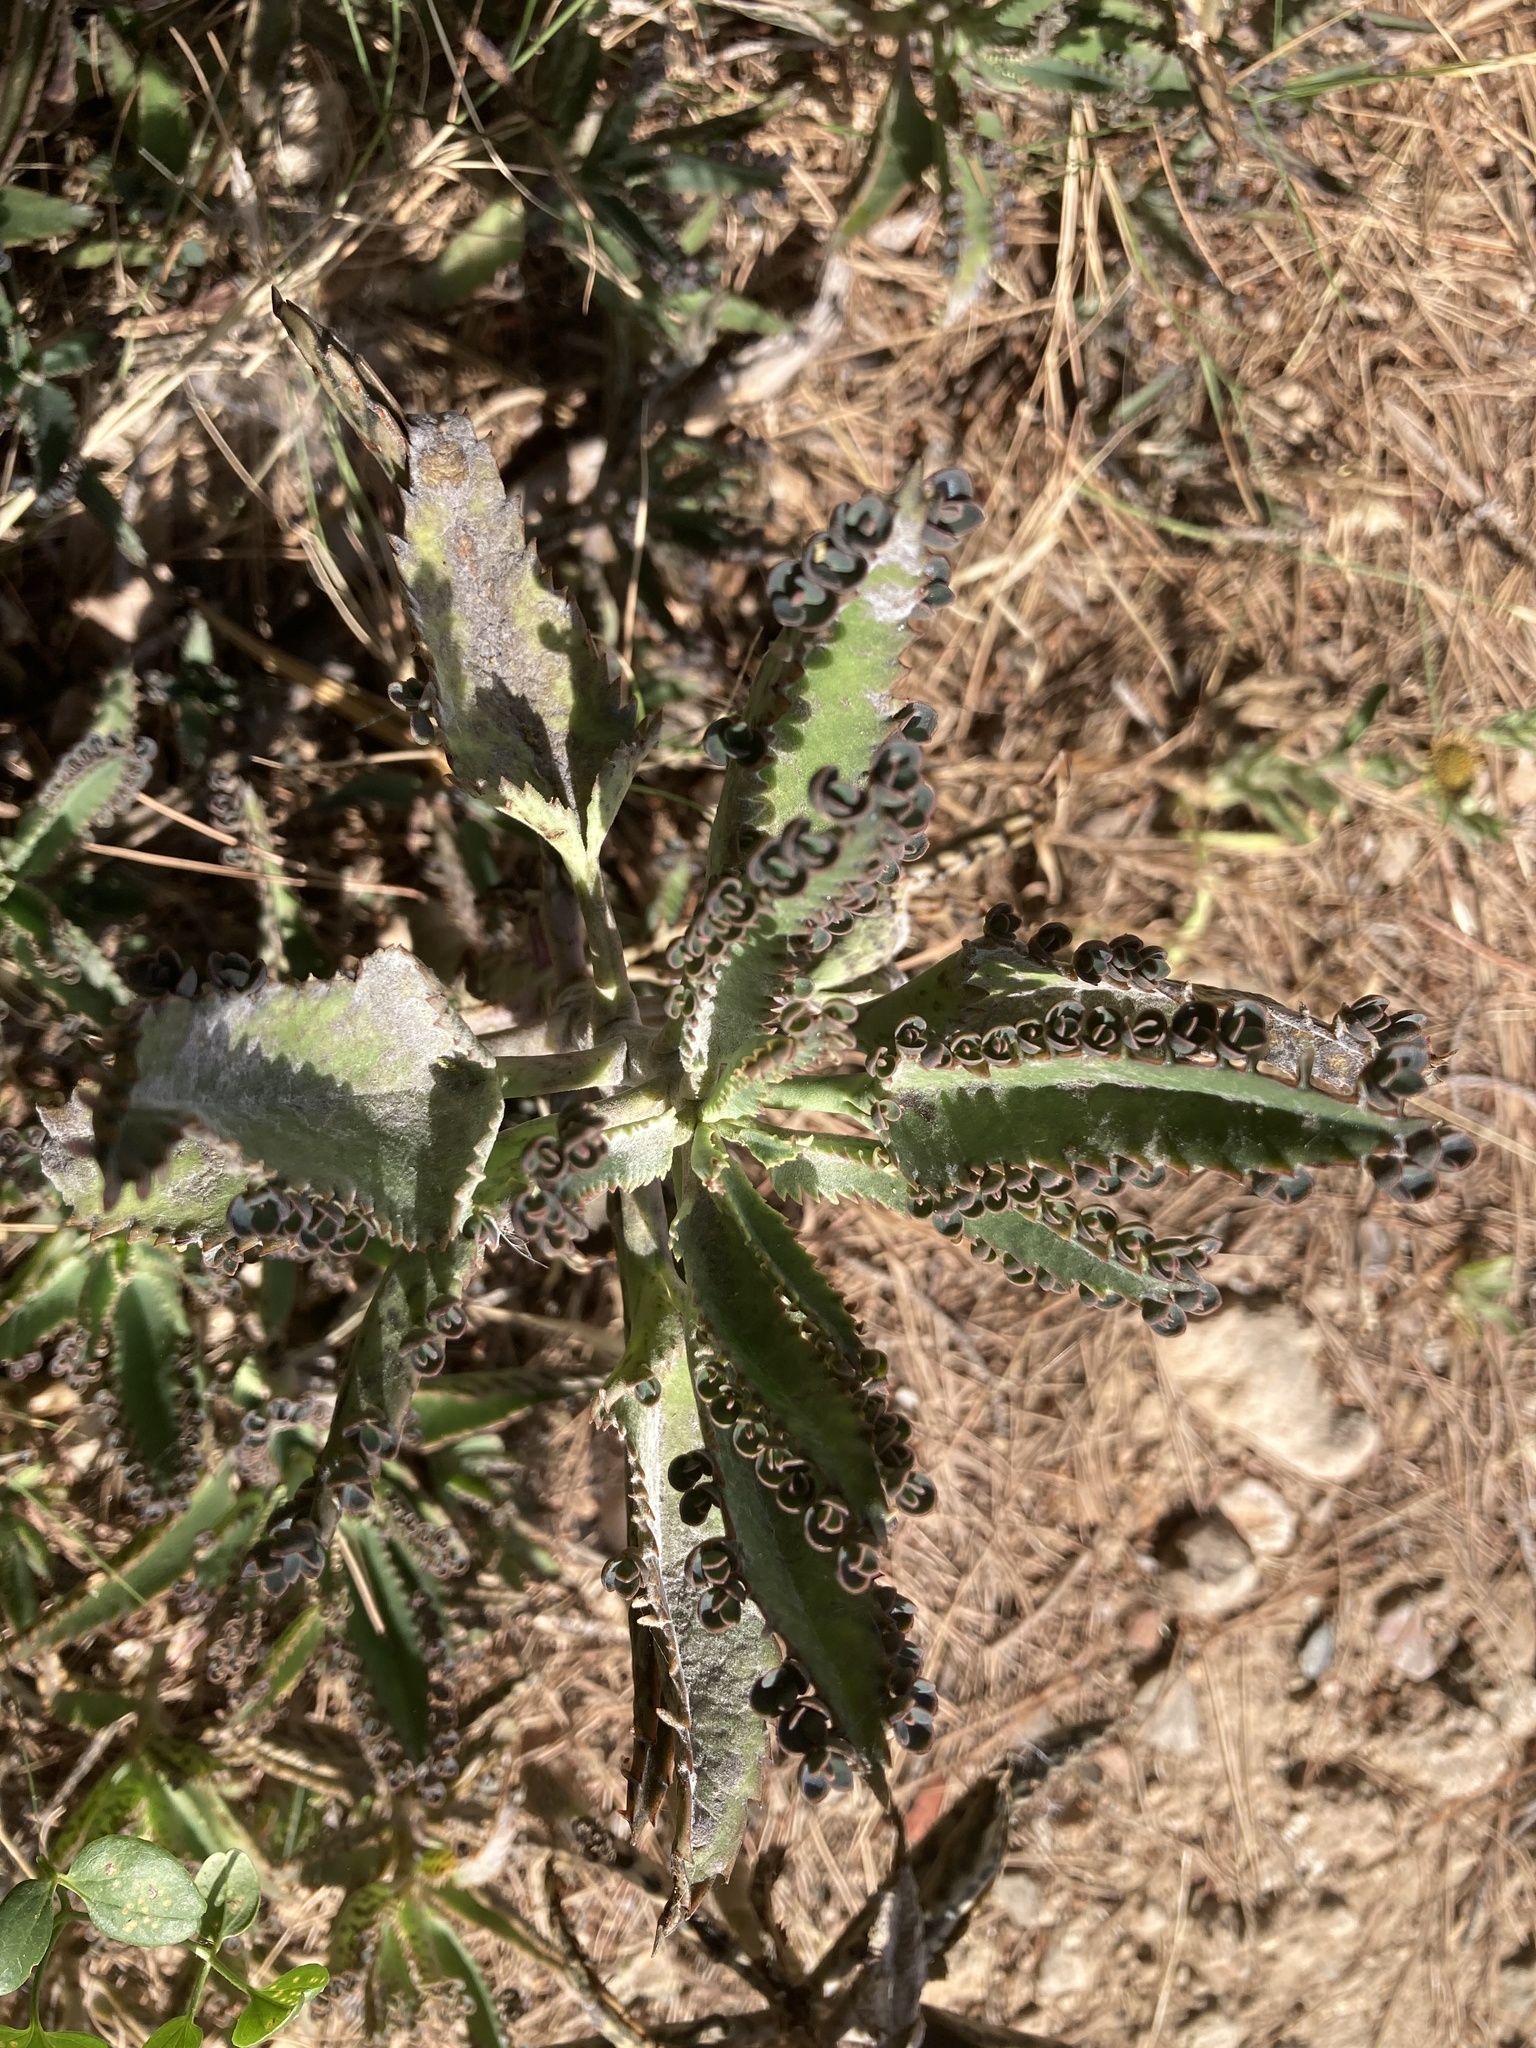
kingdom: Plantae
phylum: Tracheophyta
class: Magnoliopsida
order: Saxifragales
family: Crassulaceae
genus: Kalanchoe
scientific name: Kalanchoe houghtonii
